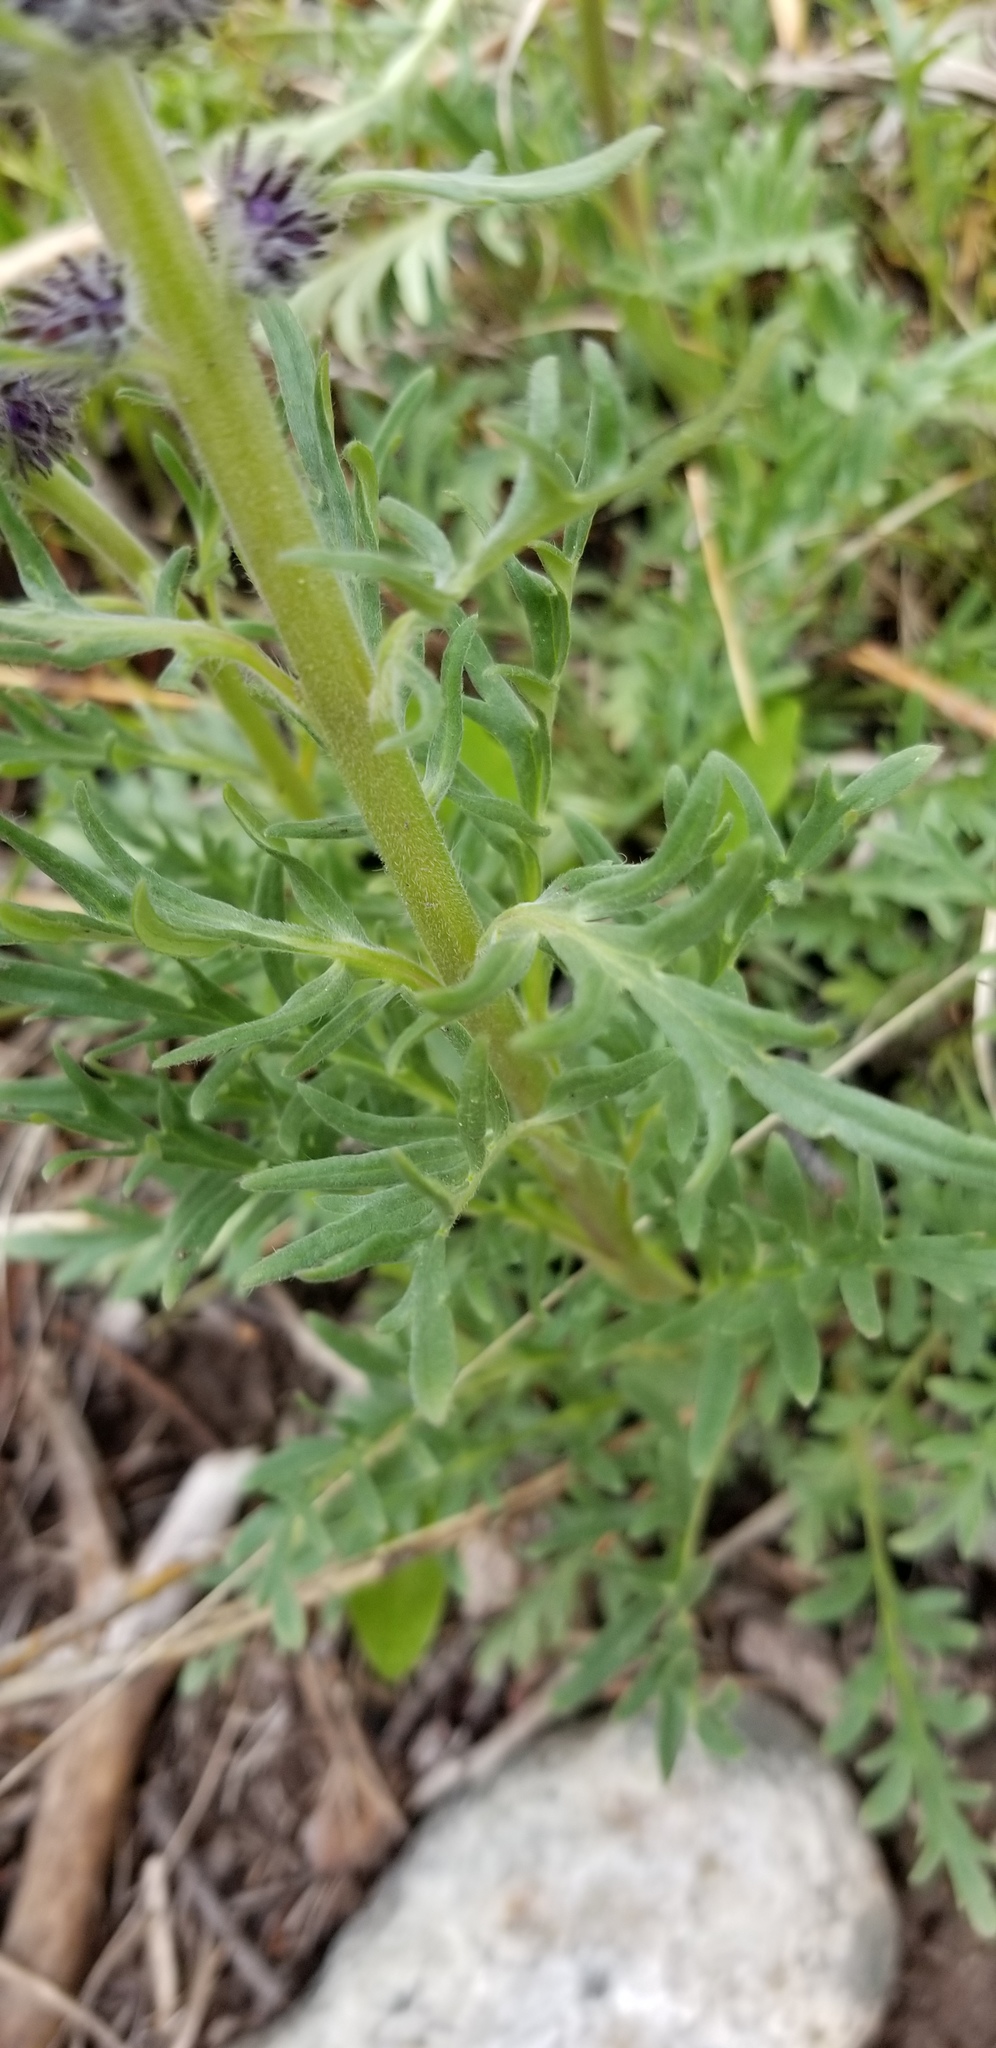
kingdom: Plantae
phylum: Tracheophyta
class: Magnoliopsida
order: Boraginales
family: Hydrophyllaceae
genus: Phacelia
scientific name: Phacelia sericea
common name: Silky phacelia
